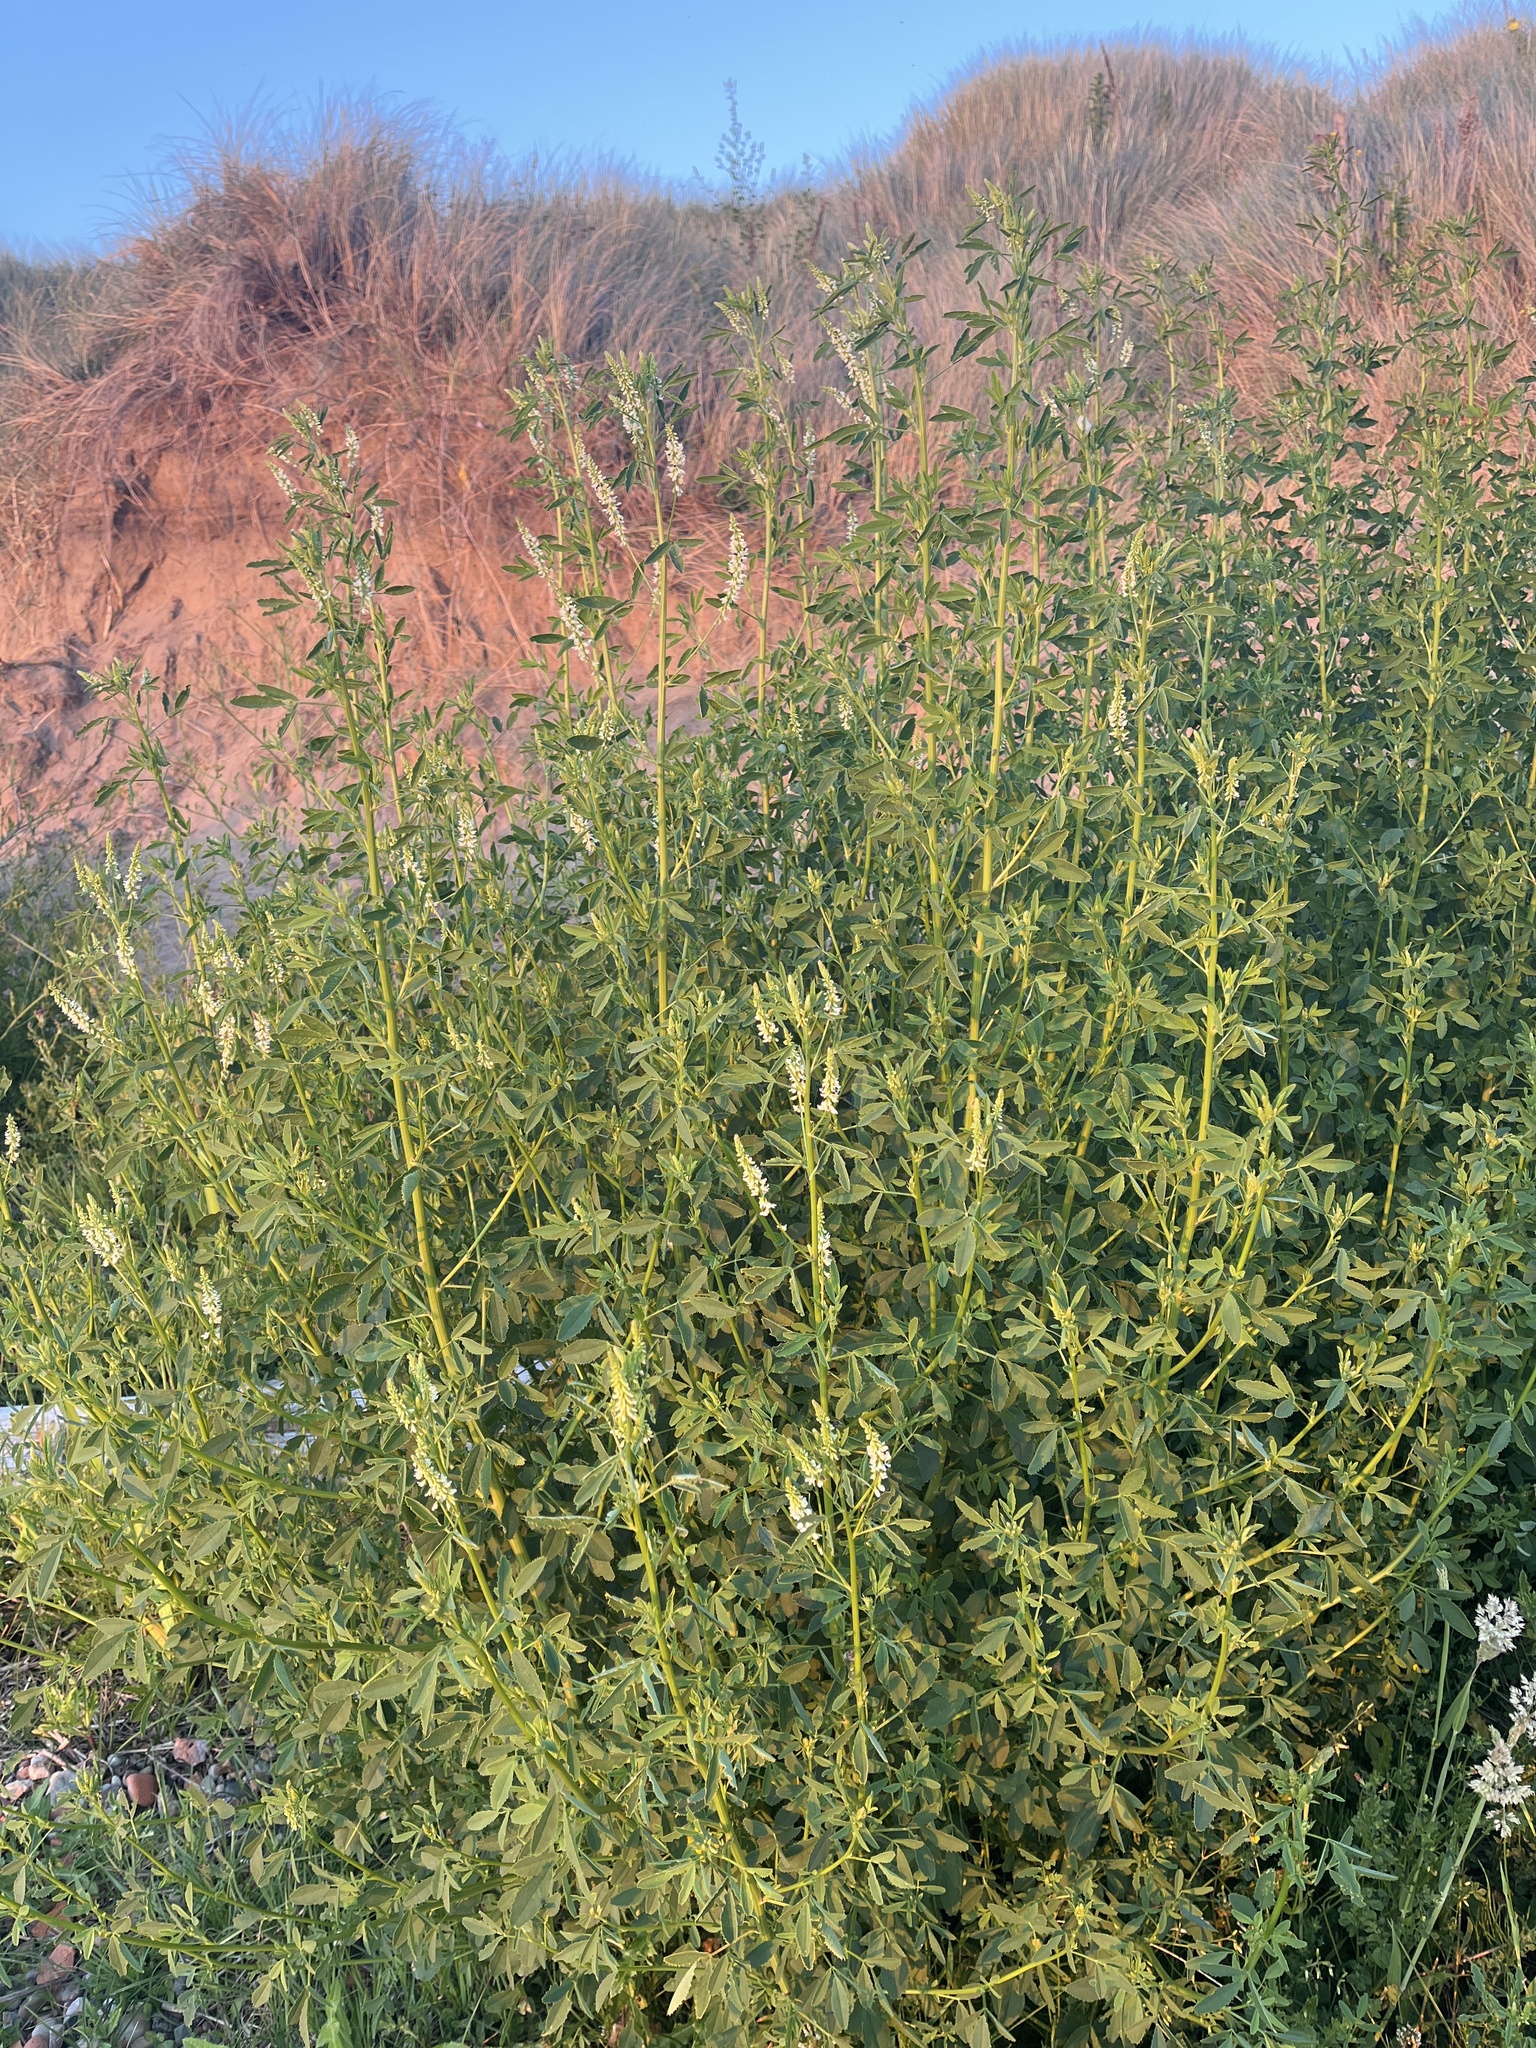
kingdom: Plantae
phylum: Tracheophyta
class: Magnoliopsida
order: Fabales
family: Fabaceae
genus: Melilotus
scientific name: Melilotus albus
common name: White melilot
